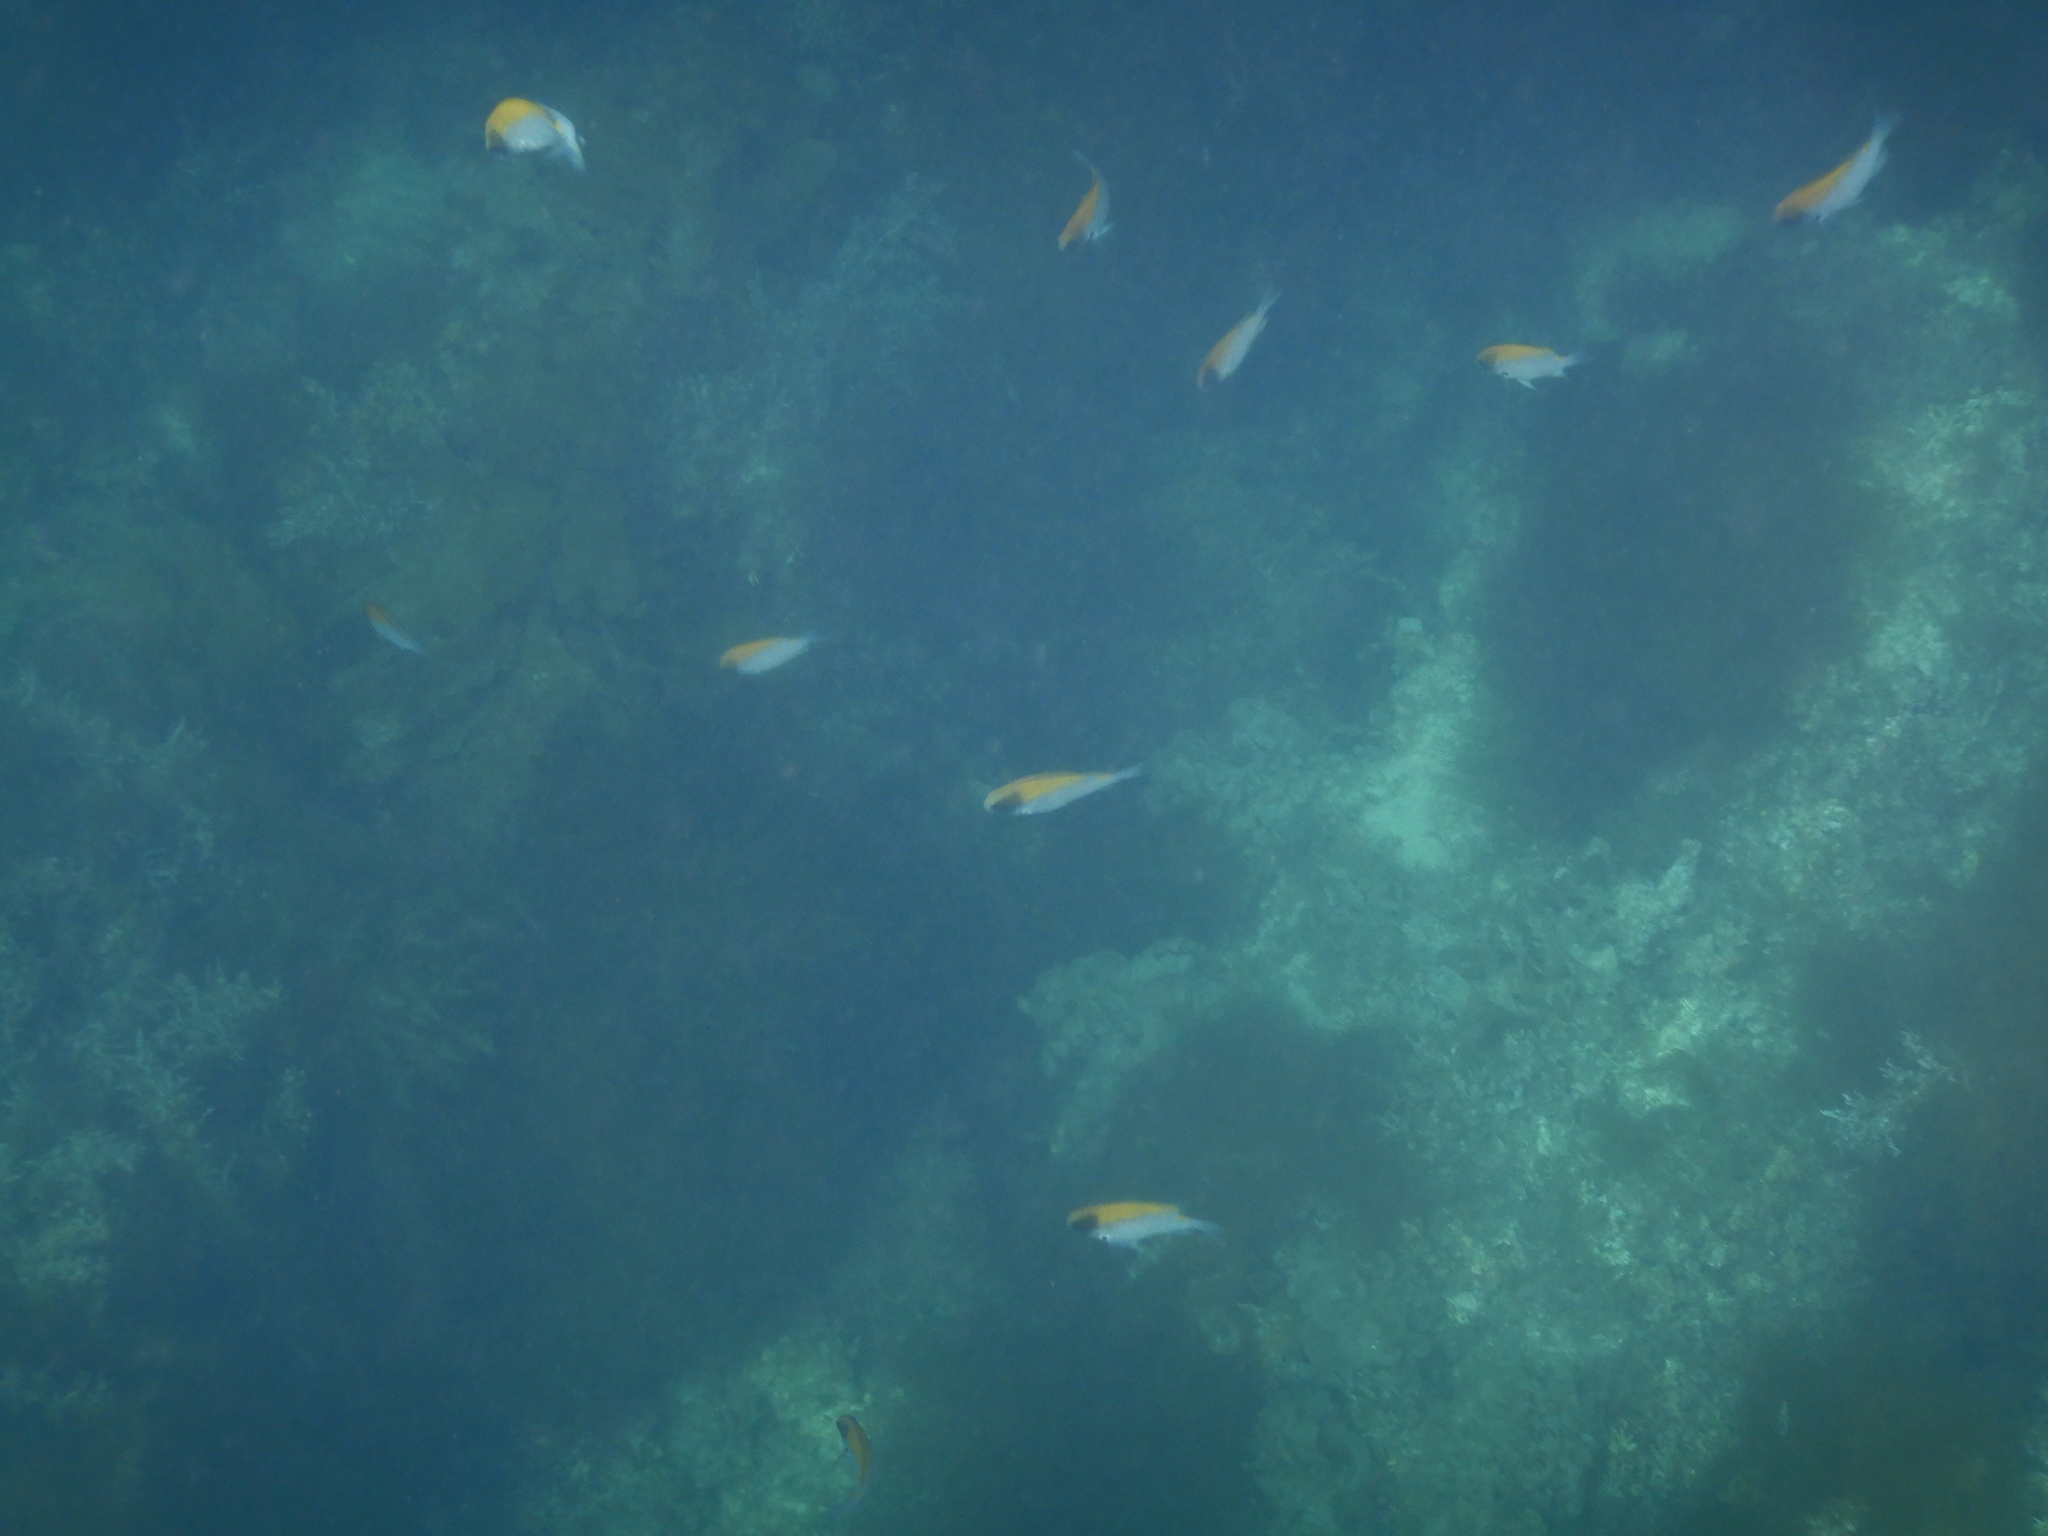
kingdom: Animalia
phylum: Chordata
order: Perciformes
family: Pomacentridae
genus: Chromis
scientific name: Chromis klunzingeri
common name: Black-headed chromis
